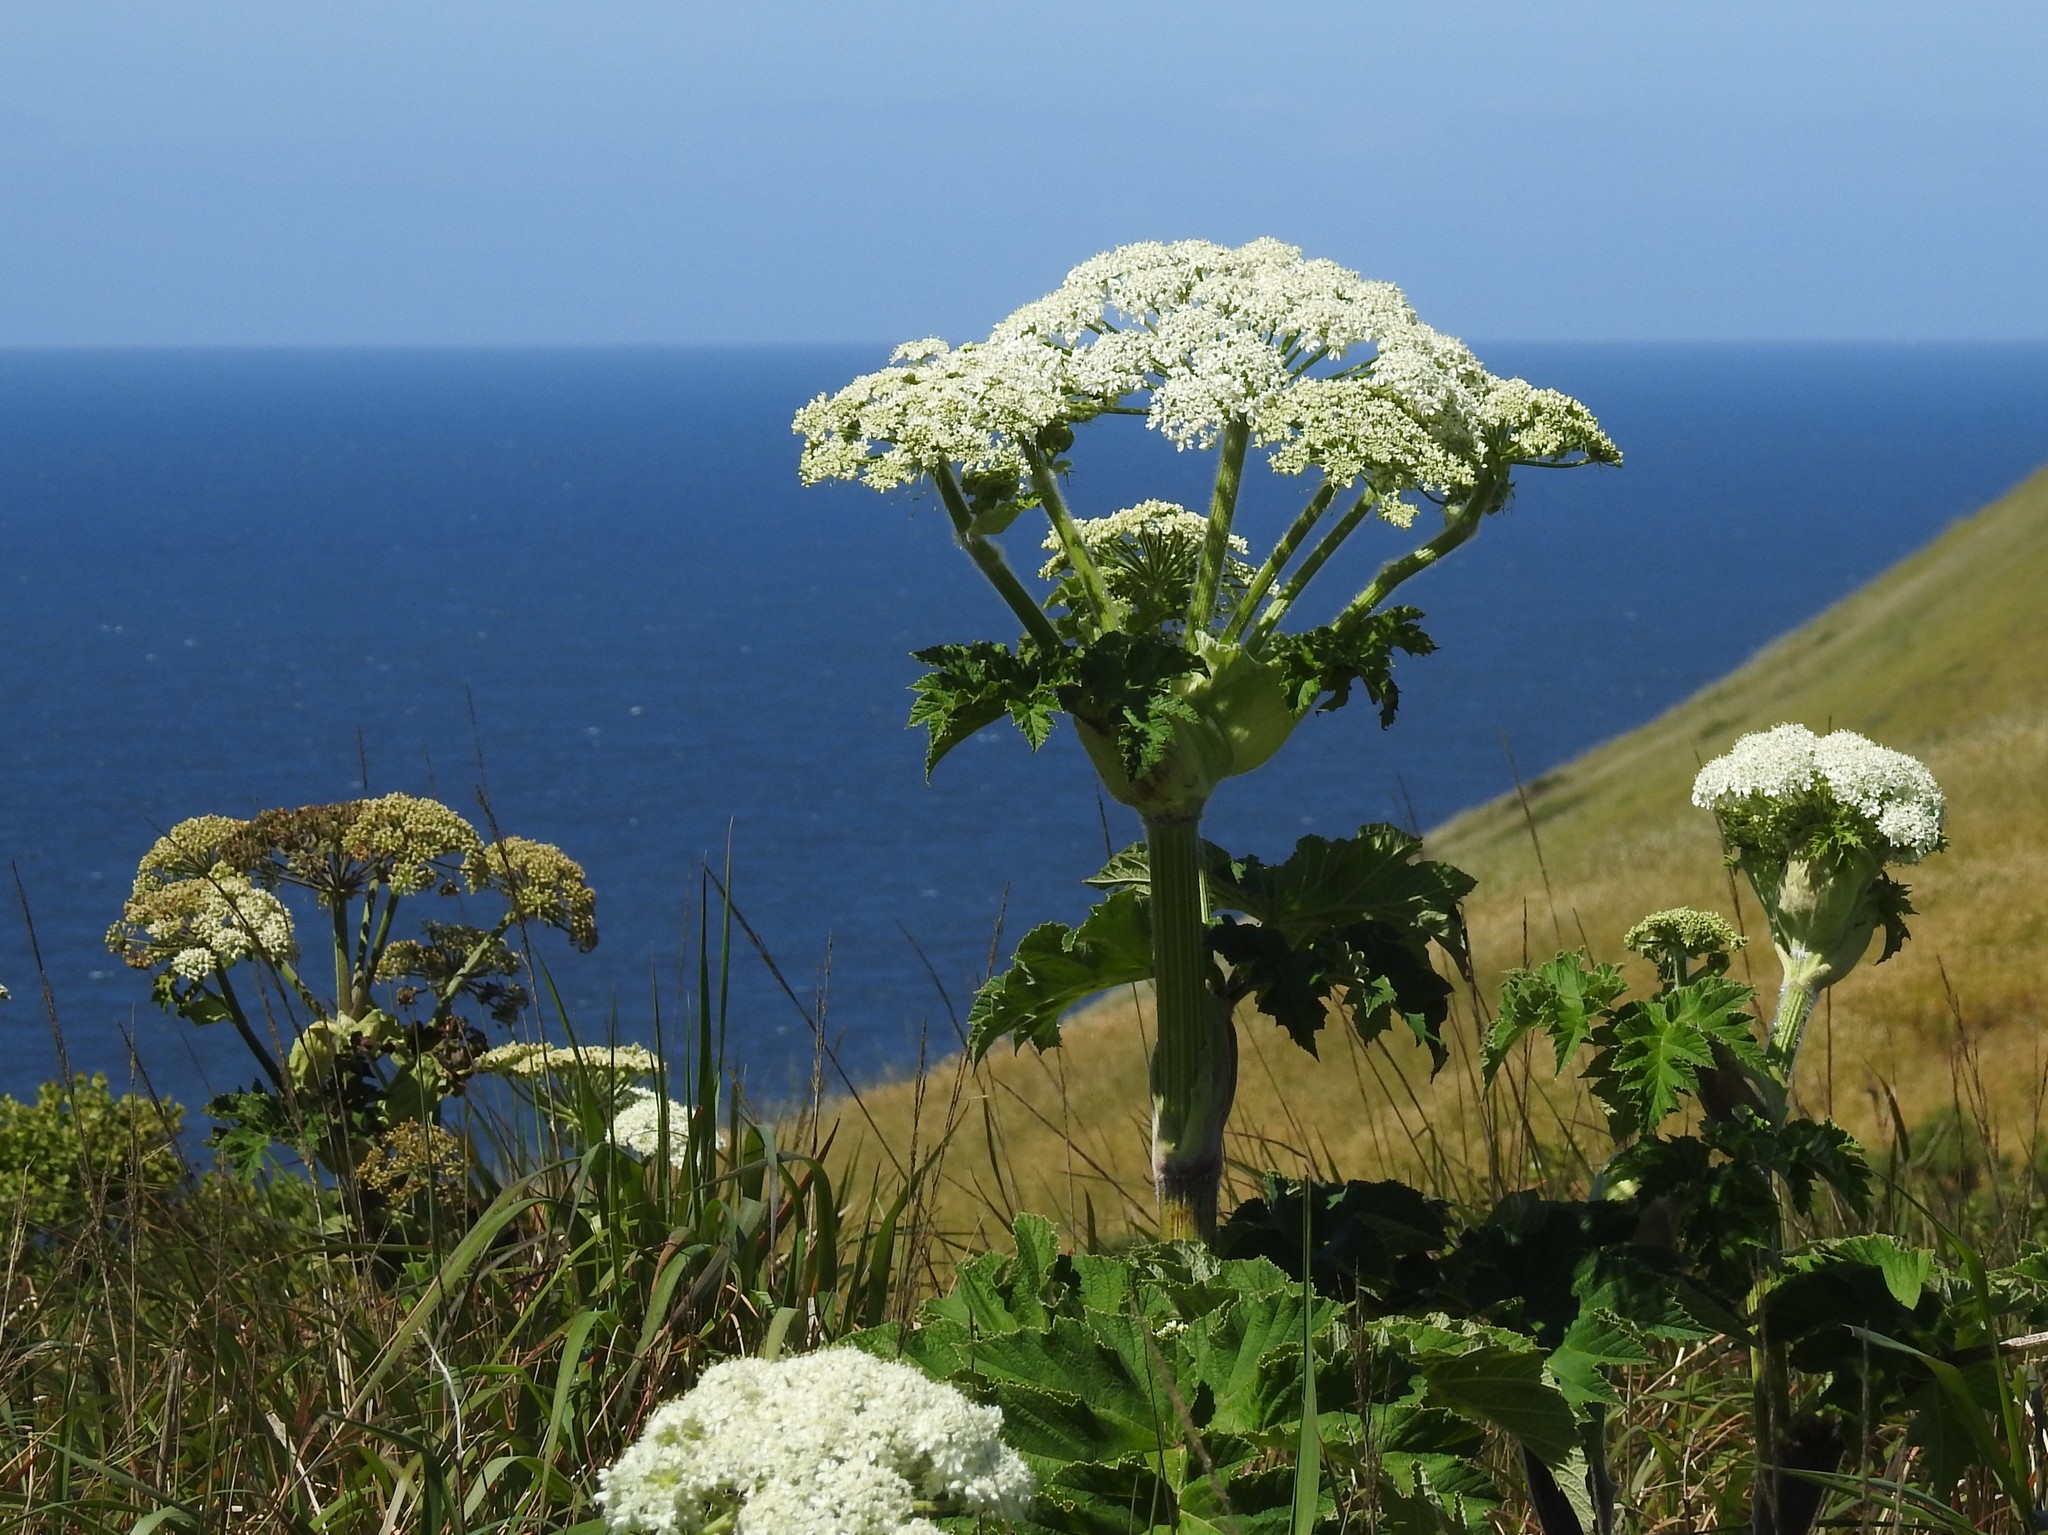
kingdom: Plantae
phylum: Tracheophyta
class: Magnoliopsida
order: Apiales
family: Apiaceae
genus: Heracleum
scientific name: Heracleum maximum
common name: American cow parsnip
